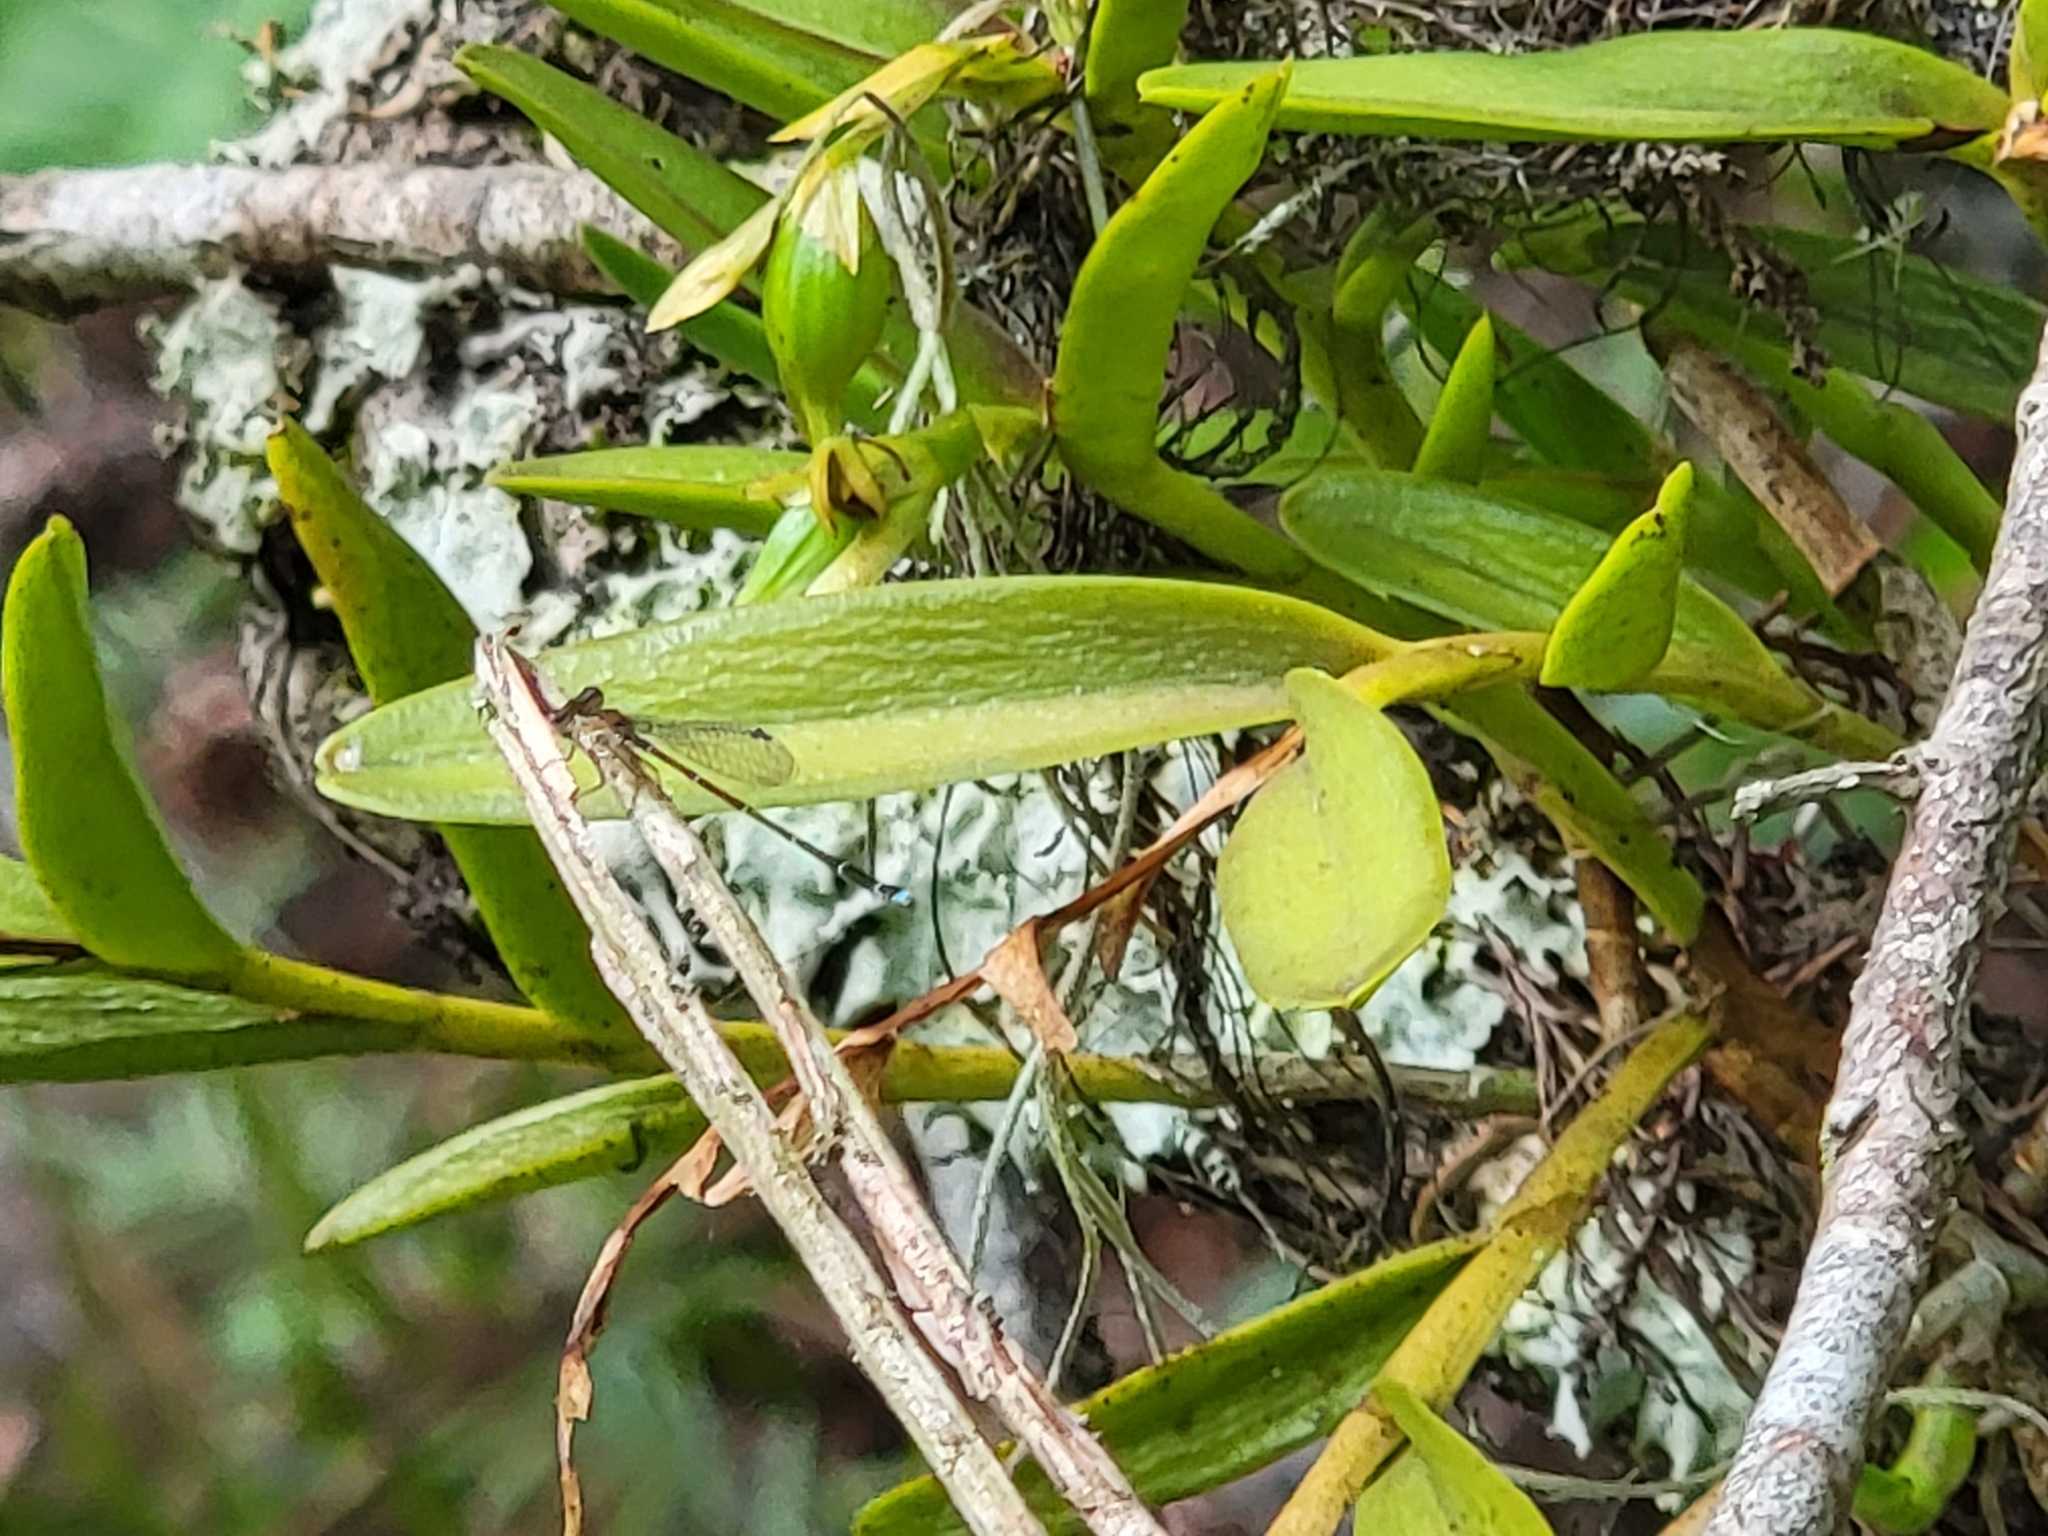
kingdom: Plantae
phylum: Tracheophyta
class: Liliopsida
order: Asparagales
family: Orchidaceae
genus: Epidendrum
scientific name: Epidendrum rigidum
